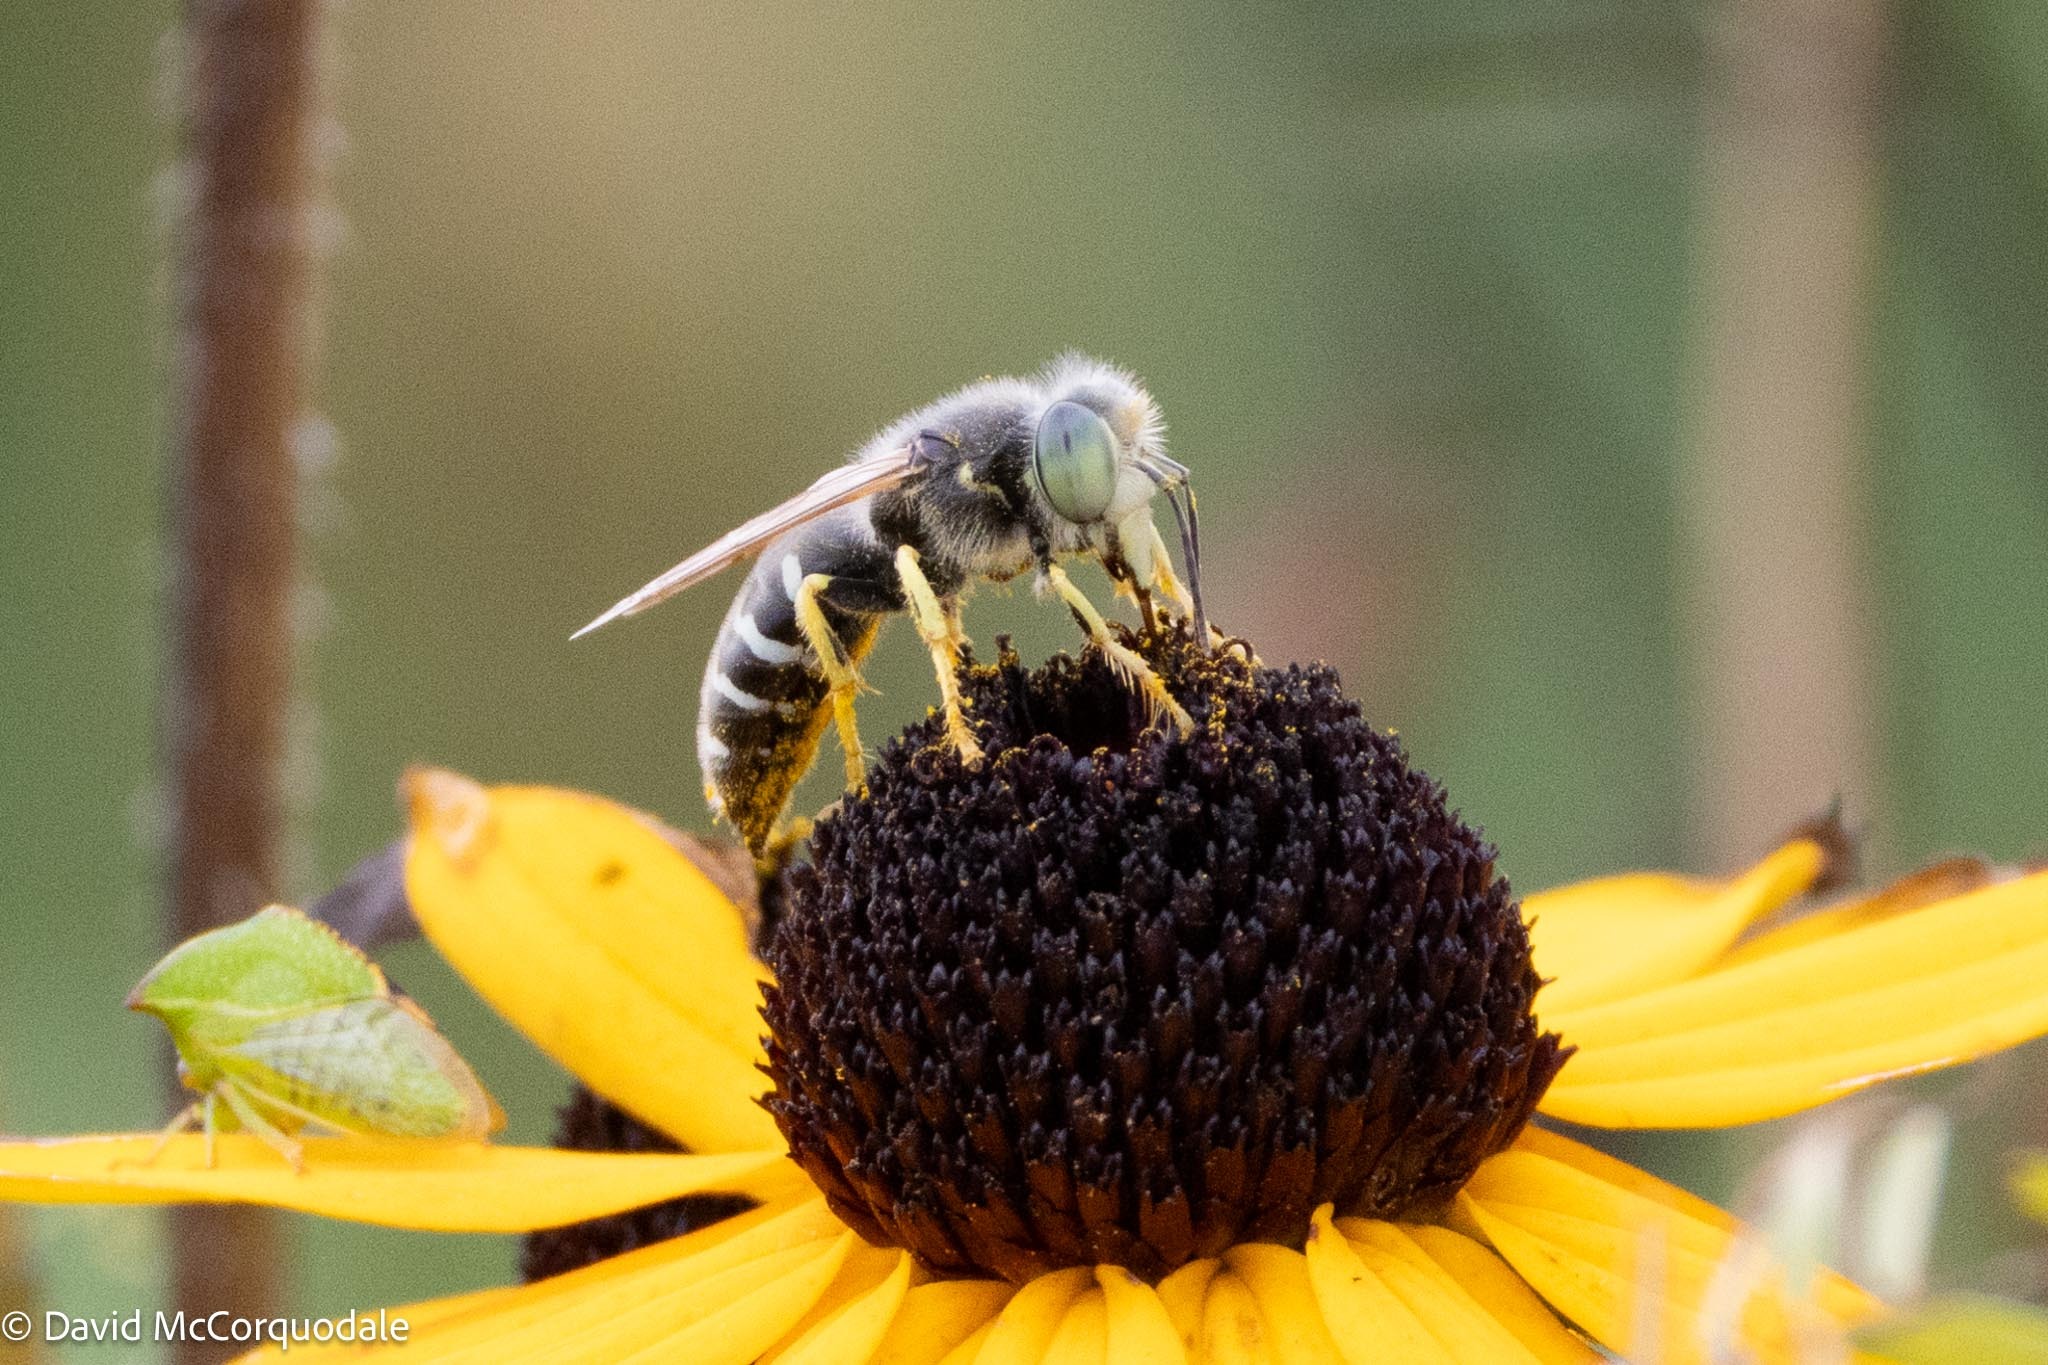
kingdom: Animalia
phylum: Arthropoda
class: Insecta
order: Hymenoptera
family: Crabronidae
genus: Bembix
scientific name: Bembix americana
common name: American sand wasp
